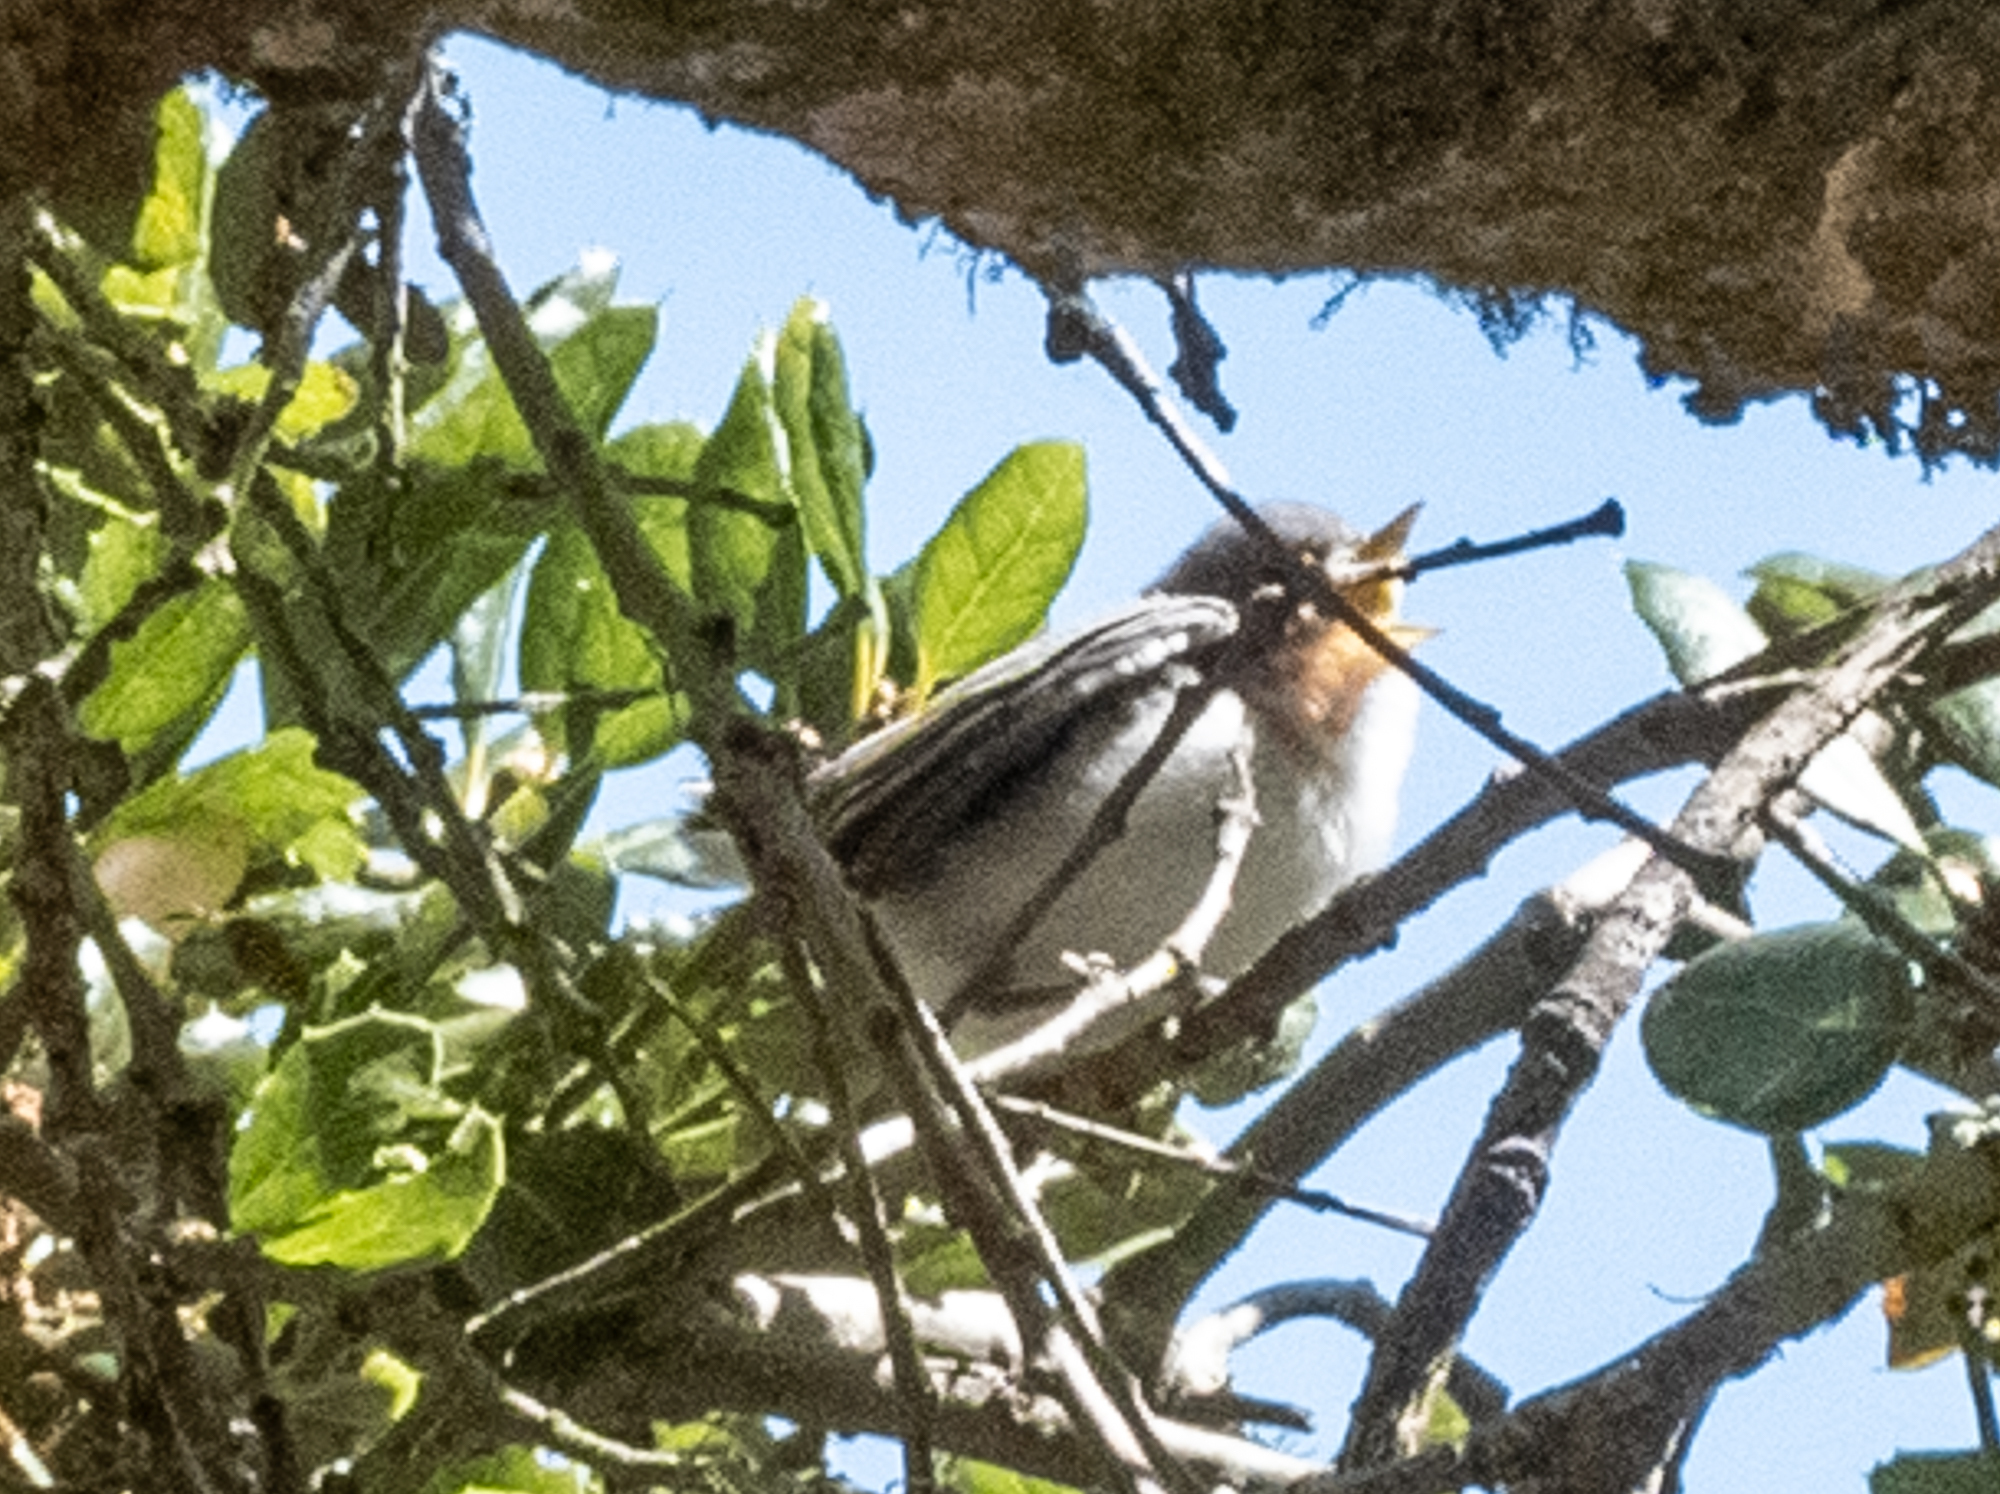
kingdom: Animalia
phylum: Chordata
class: Aves
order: Passeriformes
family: Polioptilidae
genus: Polioptila
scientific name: Polioptila caerulea
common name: Blue-gray gnatcatcher
